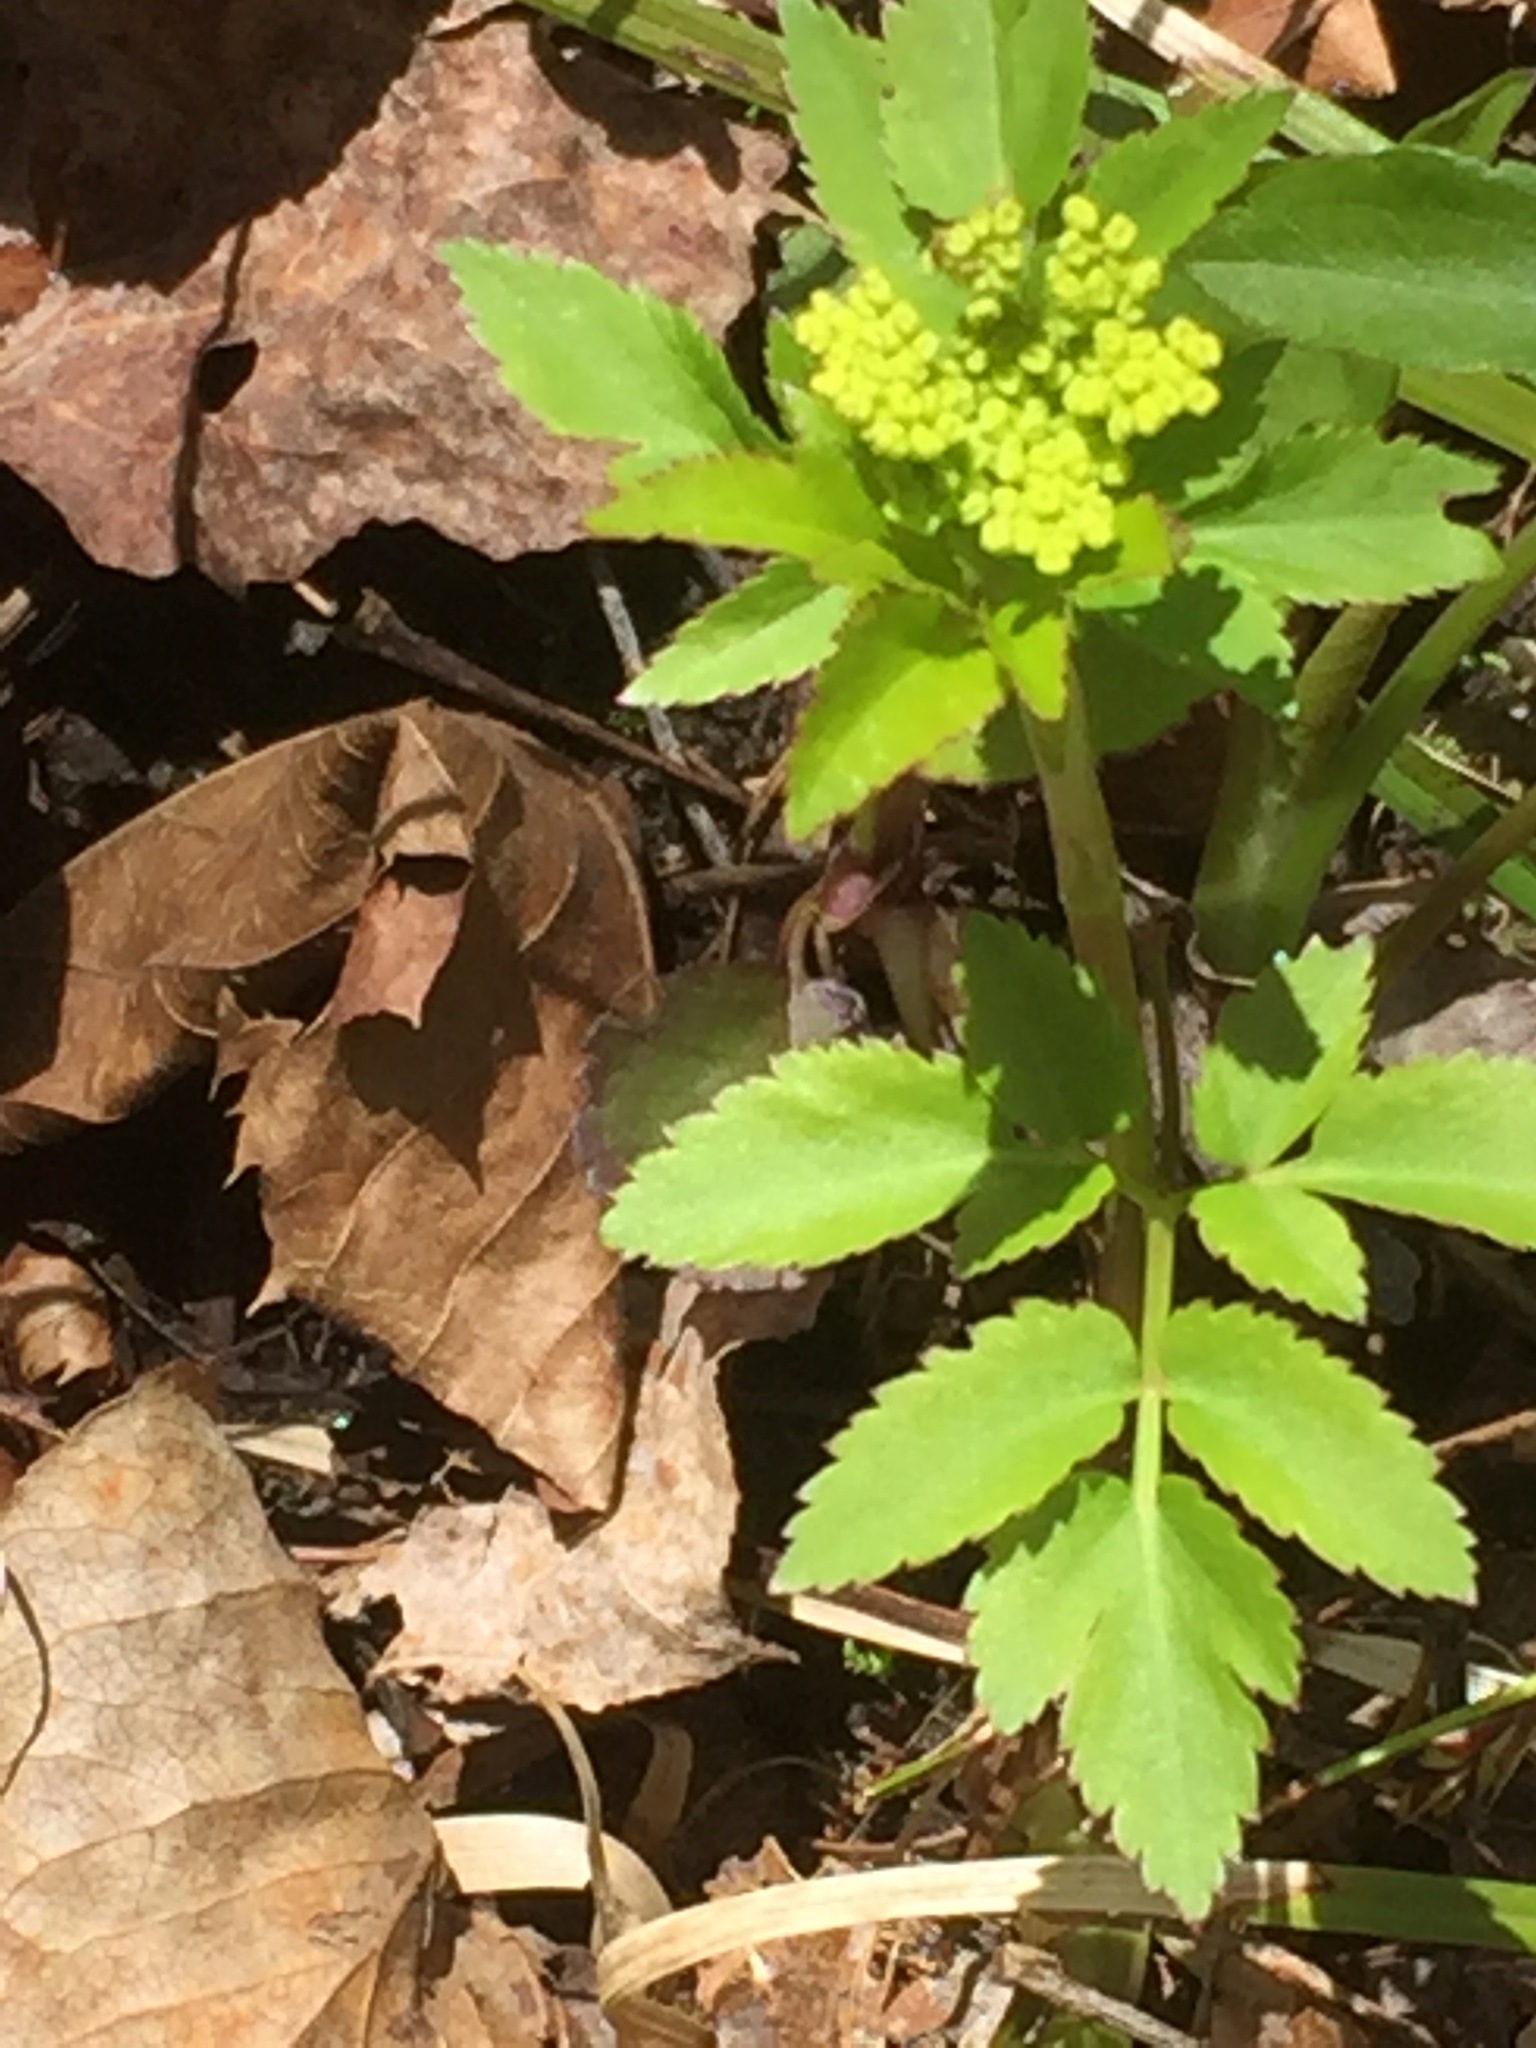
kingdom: Plantae
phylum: Tracheophyta
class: Magnoliopsida
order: Apiales
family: Apiaceae
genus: Zizia
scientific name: Zizia aurea
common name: Golden alexanders
